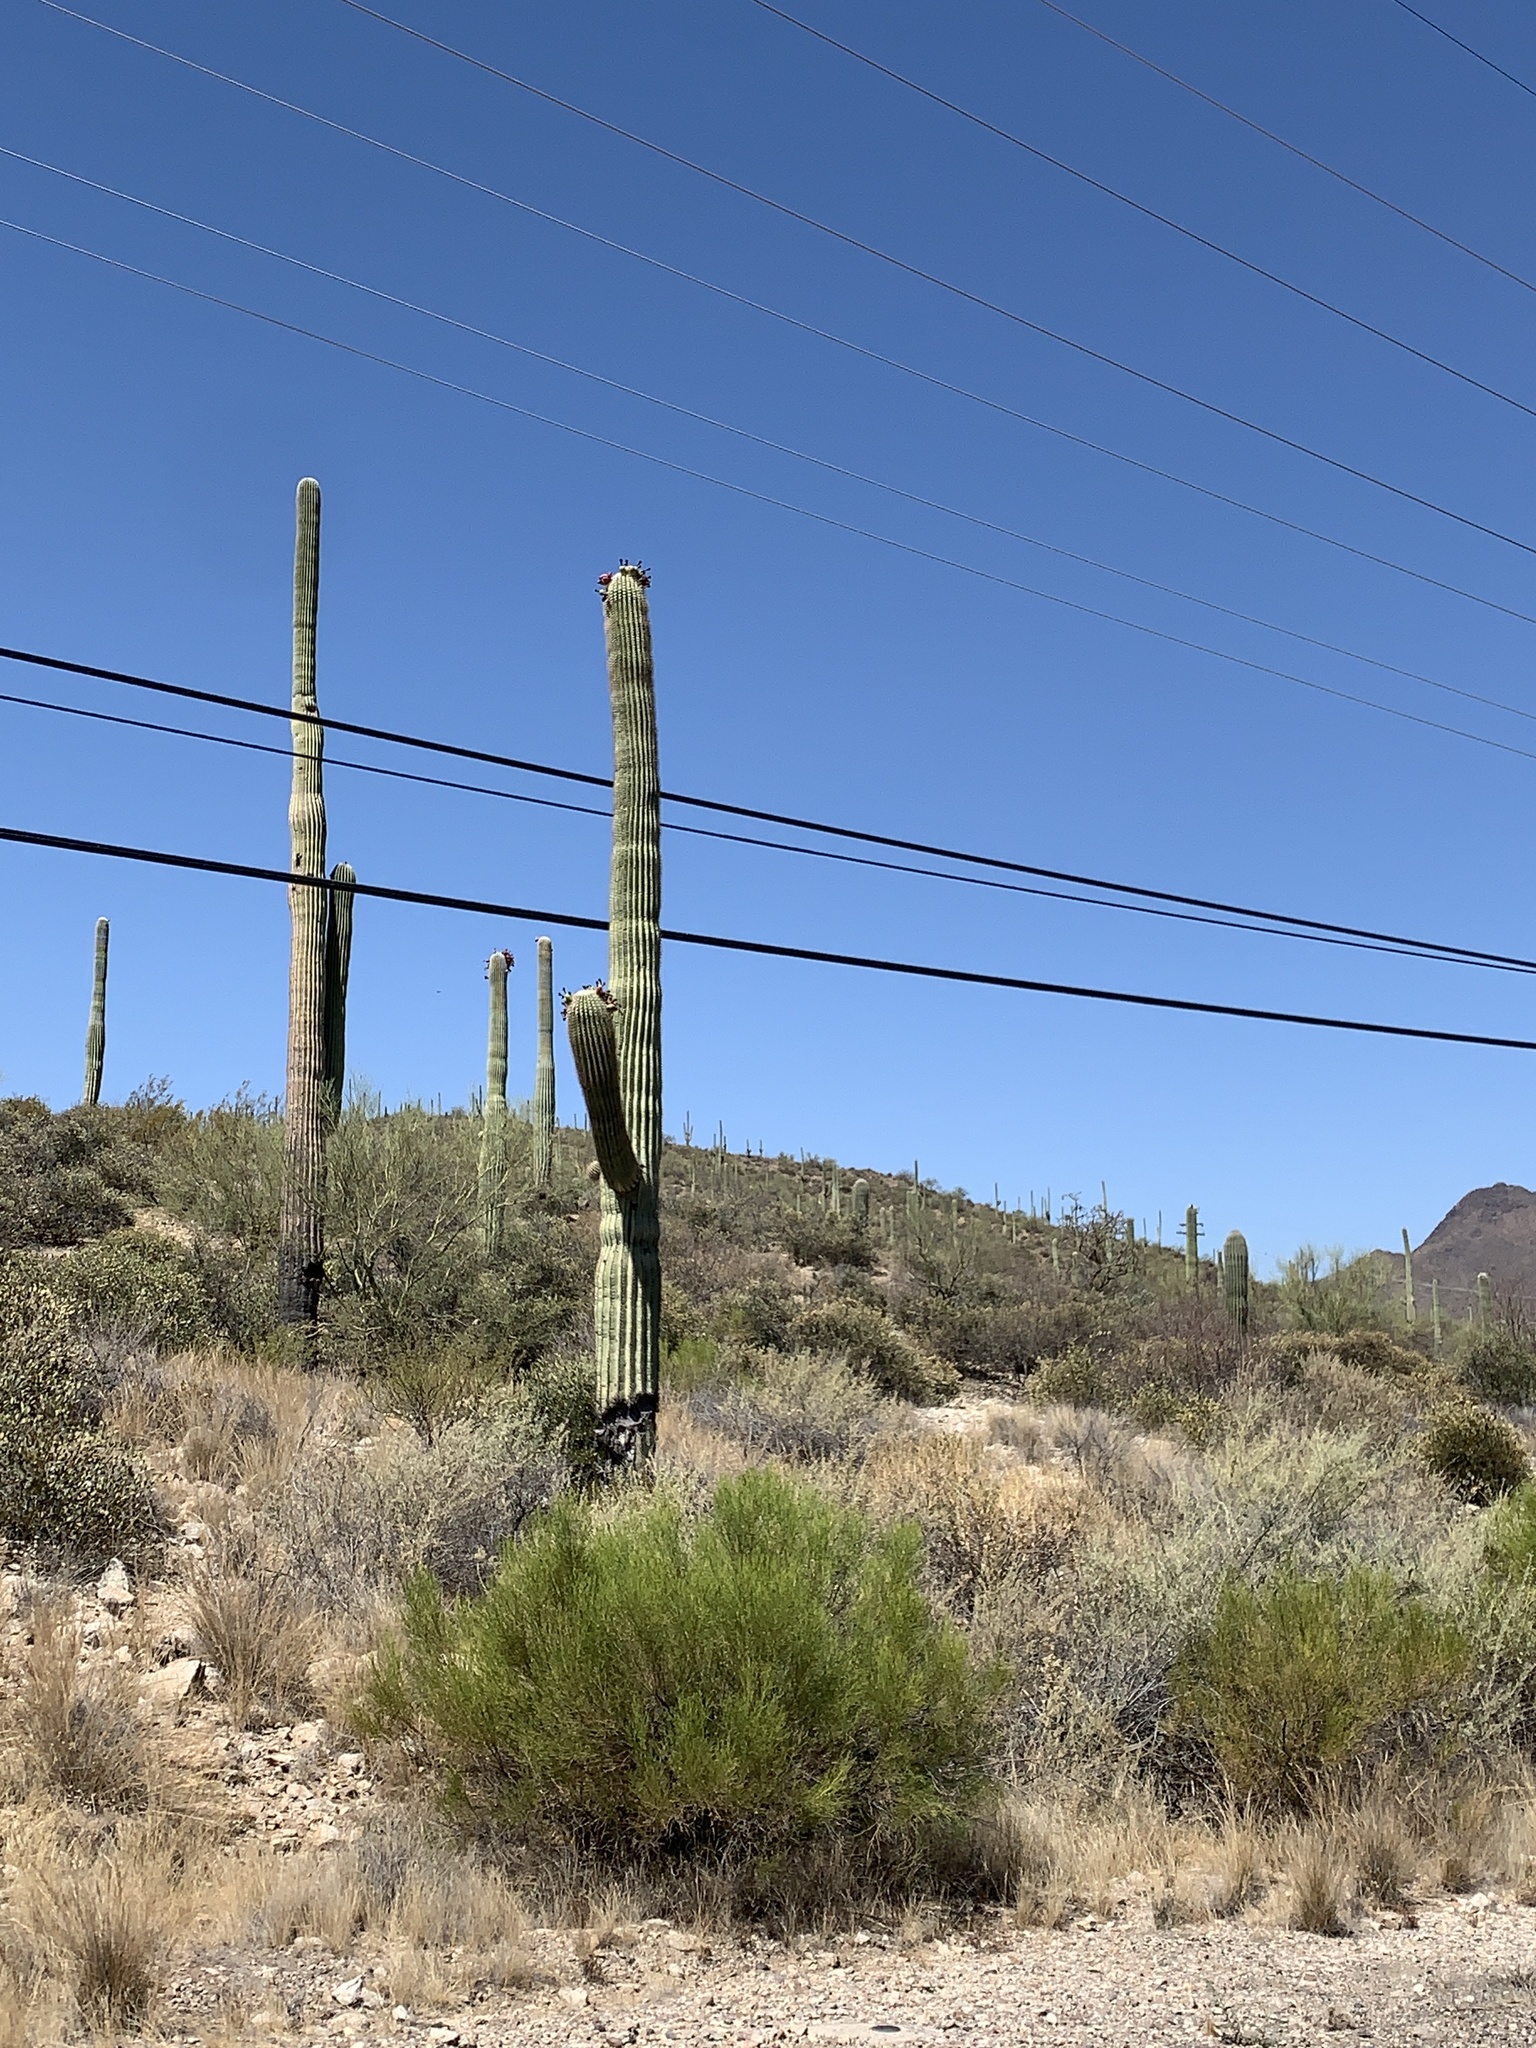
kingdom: Plantae
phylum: Tracheophyta
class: Magnoliopsida
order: Caryophyllales
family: Cactaceae
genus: Carnegiea
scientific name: Carnegiea gigantea
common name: Saguaro
